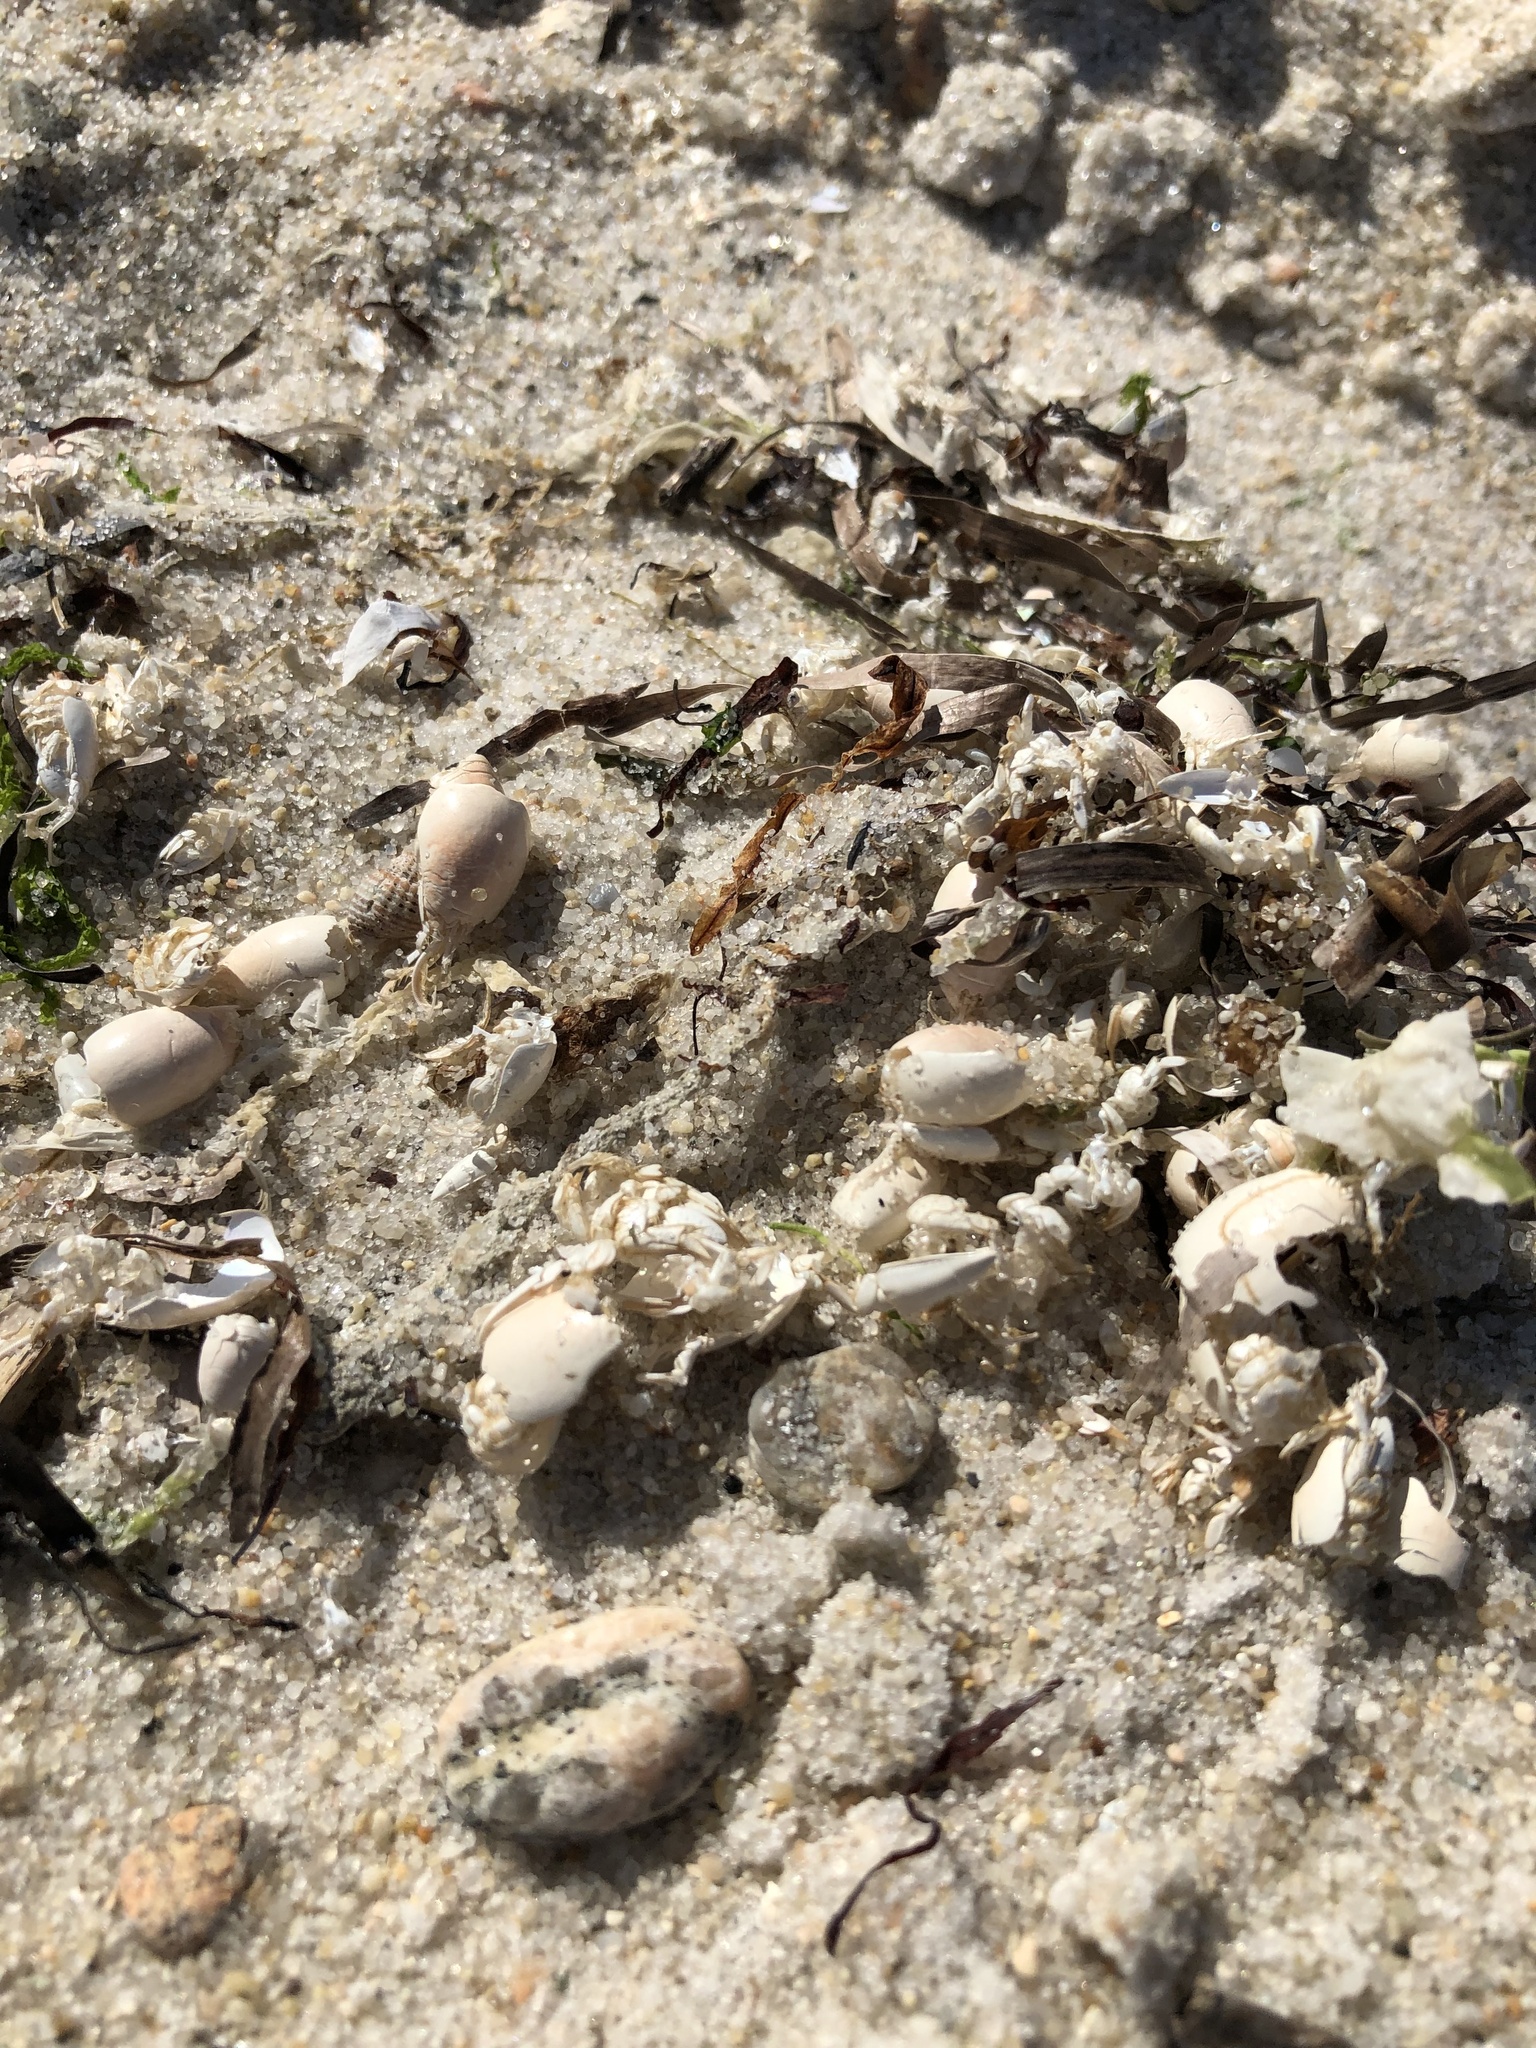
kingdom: Animalia
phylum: Arthropoda
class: Malacostraca
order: Decapoda
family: Hippidae
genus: Emerita
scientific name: Emerita talpoida
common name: Atlantic sand crab
